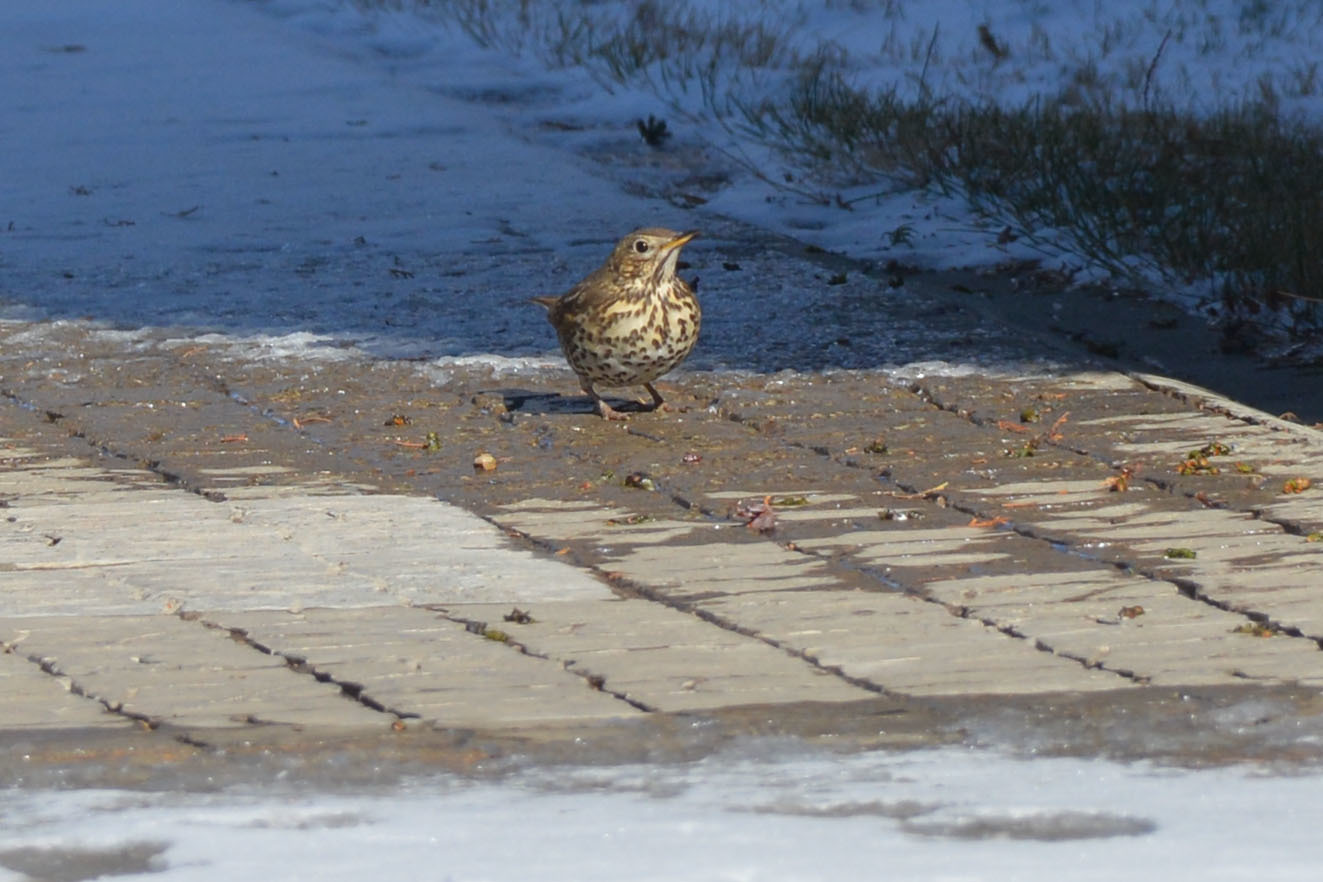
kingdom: Animalia
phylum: Chordata
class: Aves
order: Passeriformes
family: Turdidae
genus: Turdus
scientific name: Turdus philomelos
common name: Song thrush
